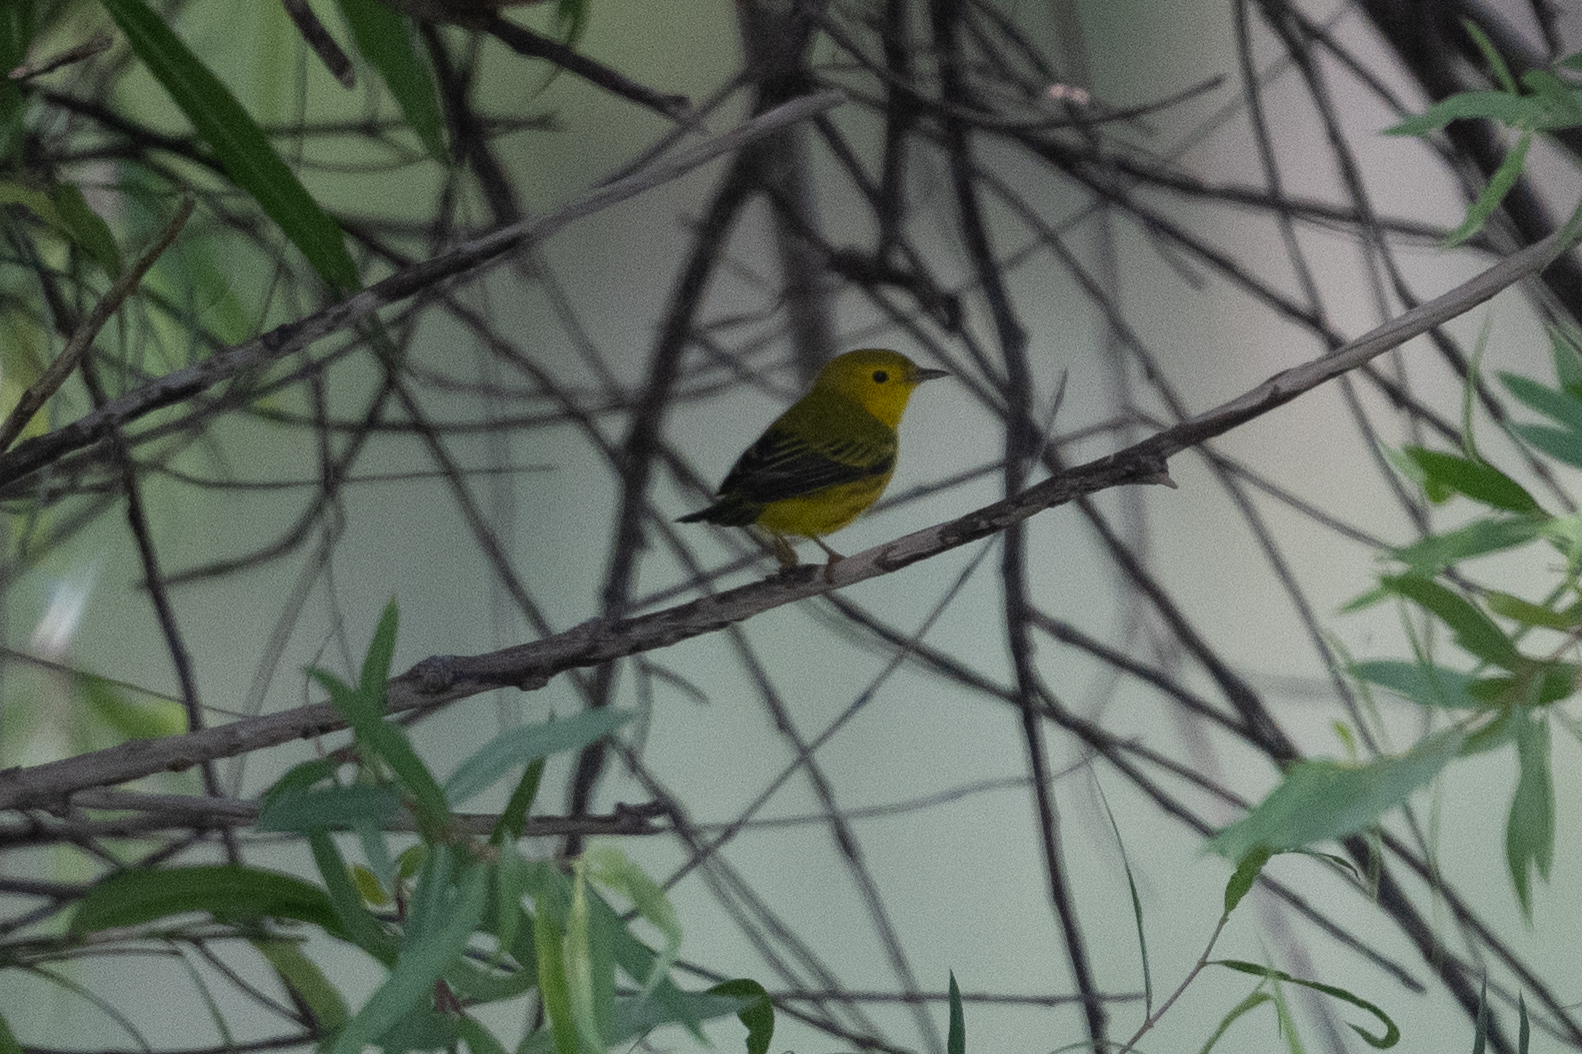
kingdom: Animalia
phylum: Chordata
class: Aves
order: Passeriformes
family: Parulidae
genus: Setophaga
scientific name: Setophaga petechia
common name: Yellow warbler
